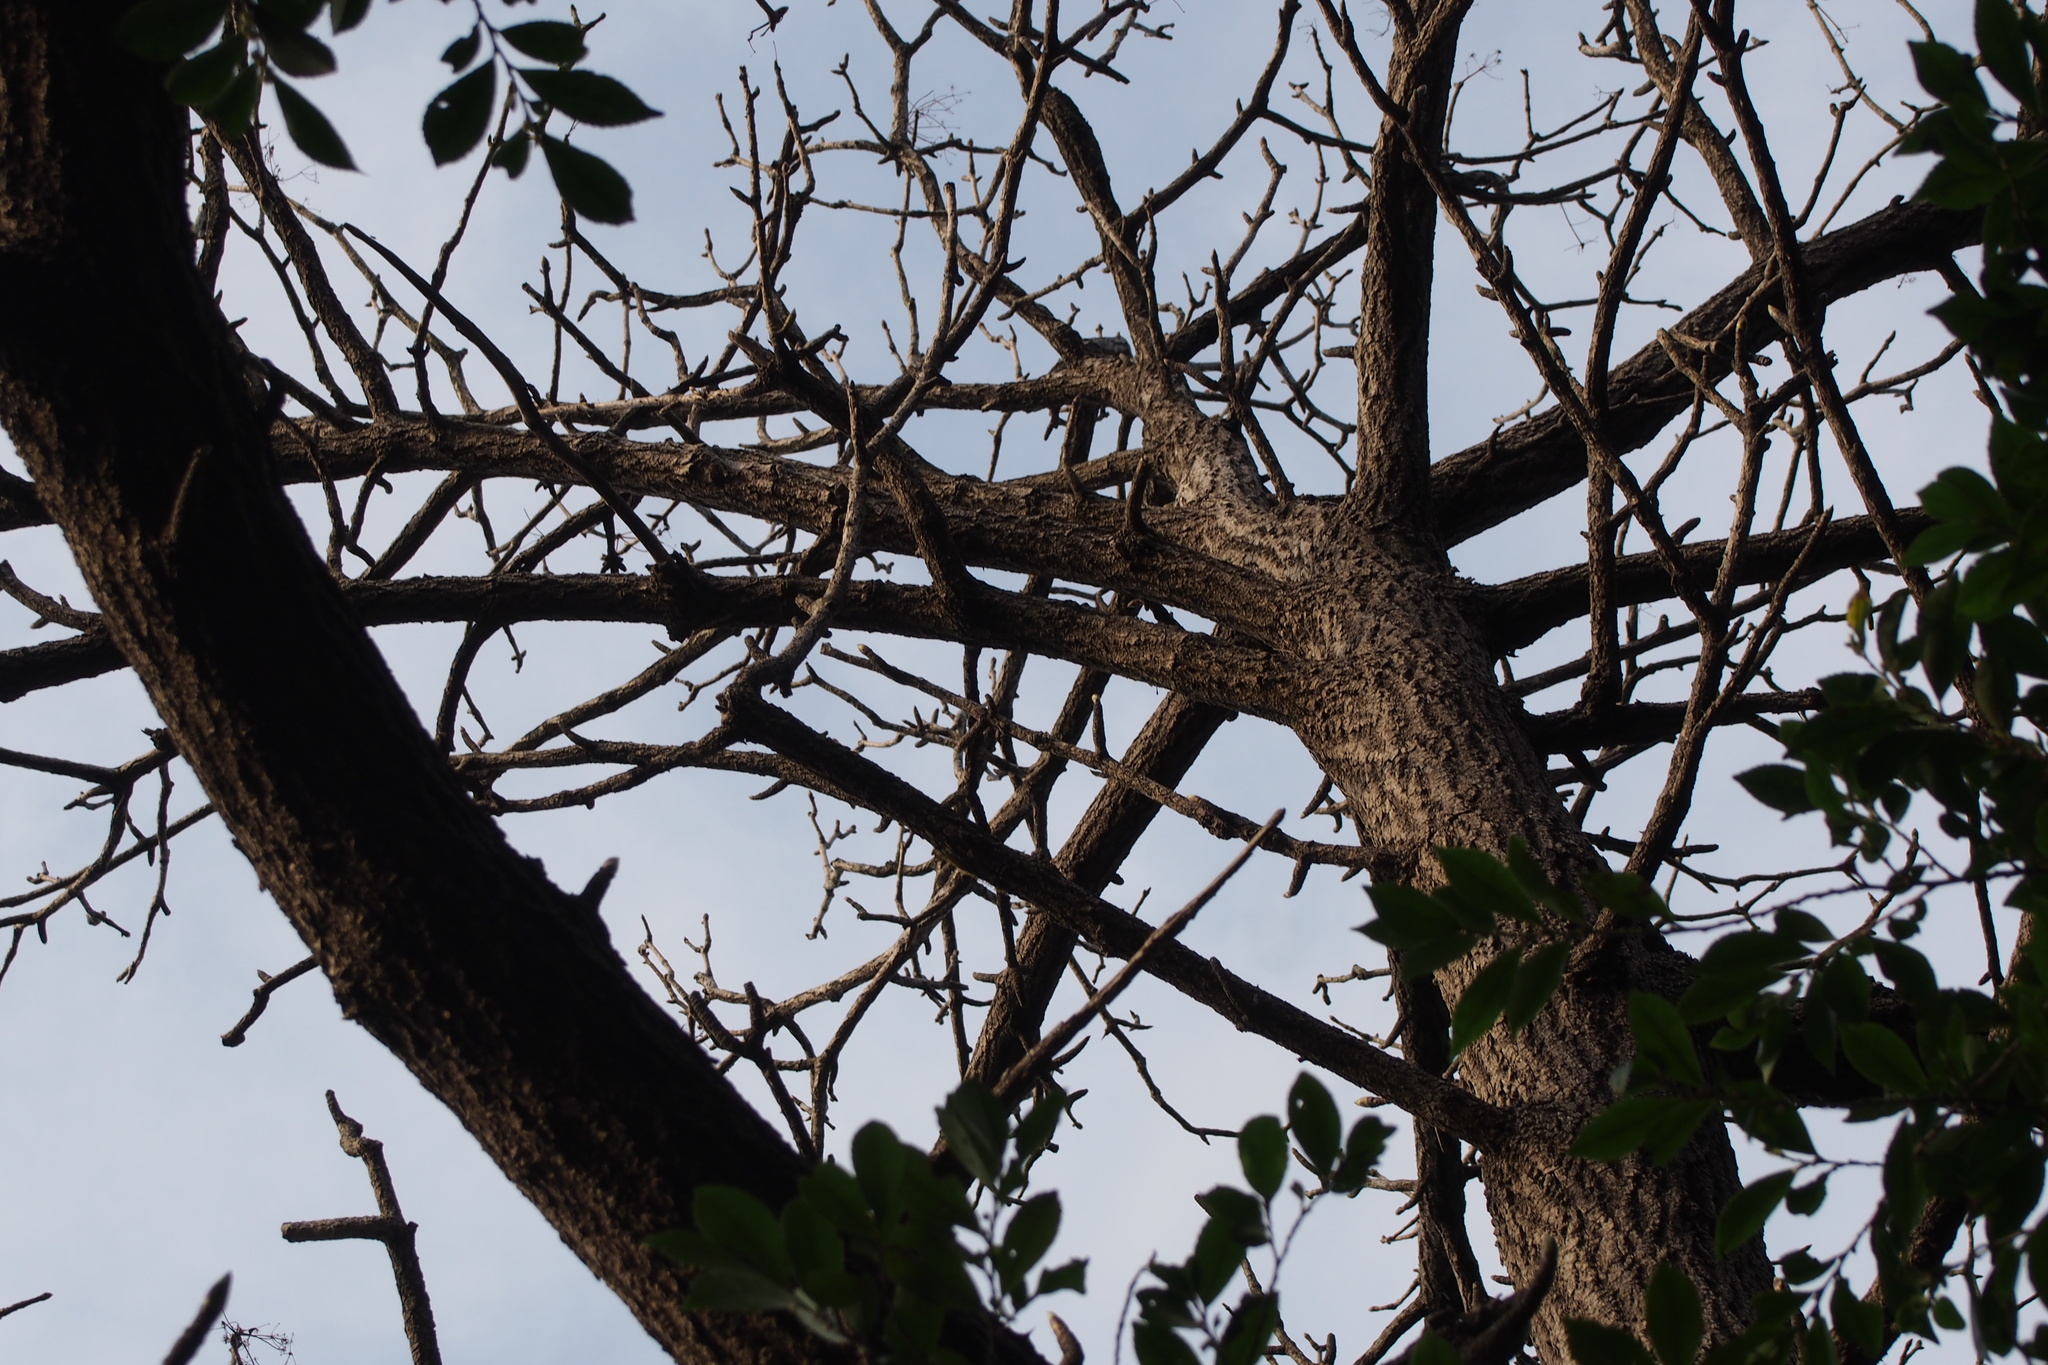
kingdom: Plantae
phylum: Tracheophyta
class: Magnoliopsida
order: Apiales
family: Araliaceae
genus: Kalopanax
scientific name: Kalopanax septemlobus
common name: Castor aralia
